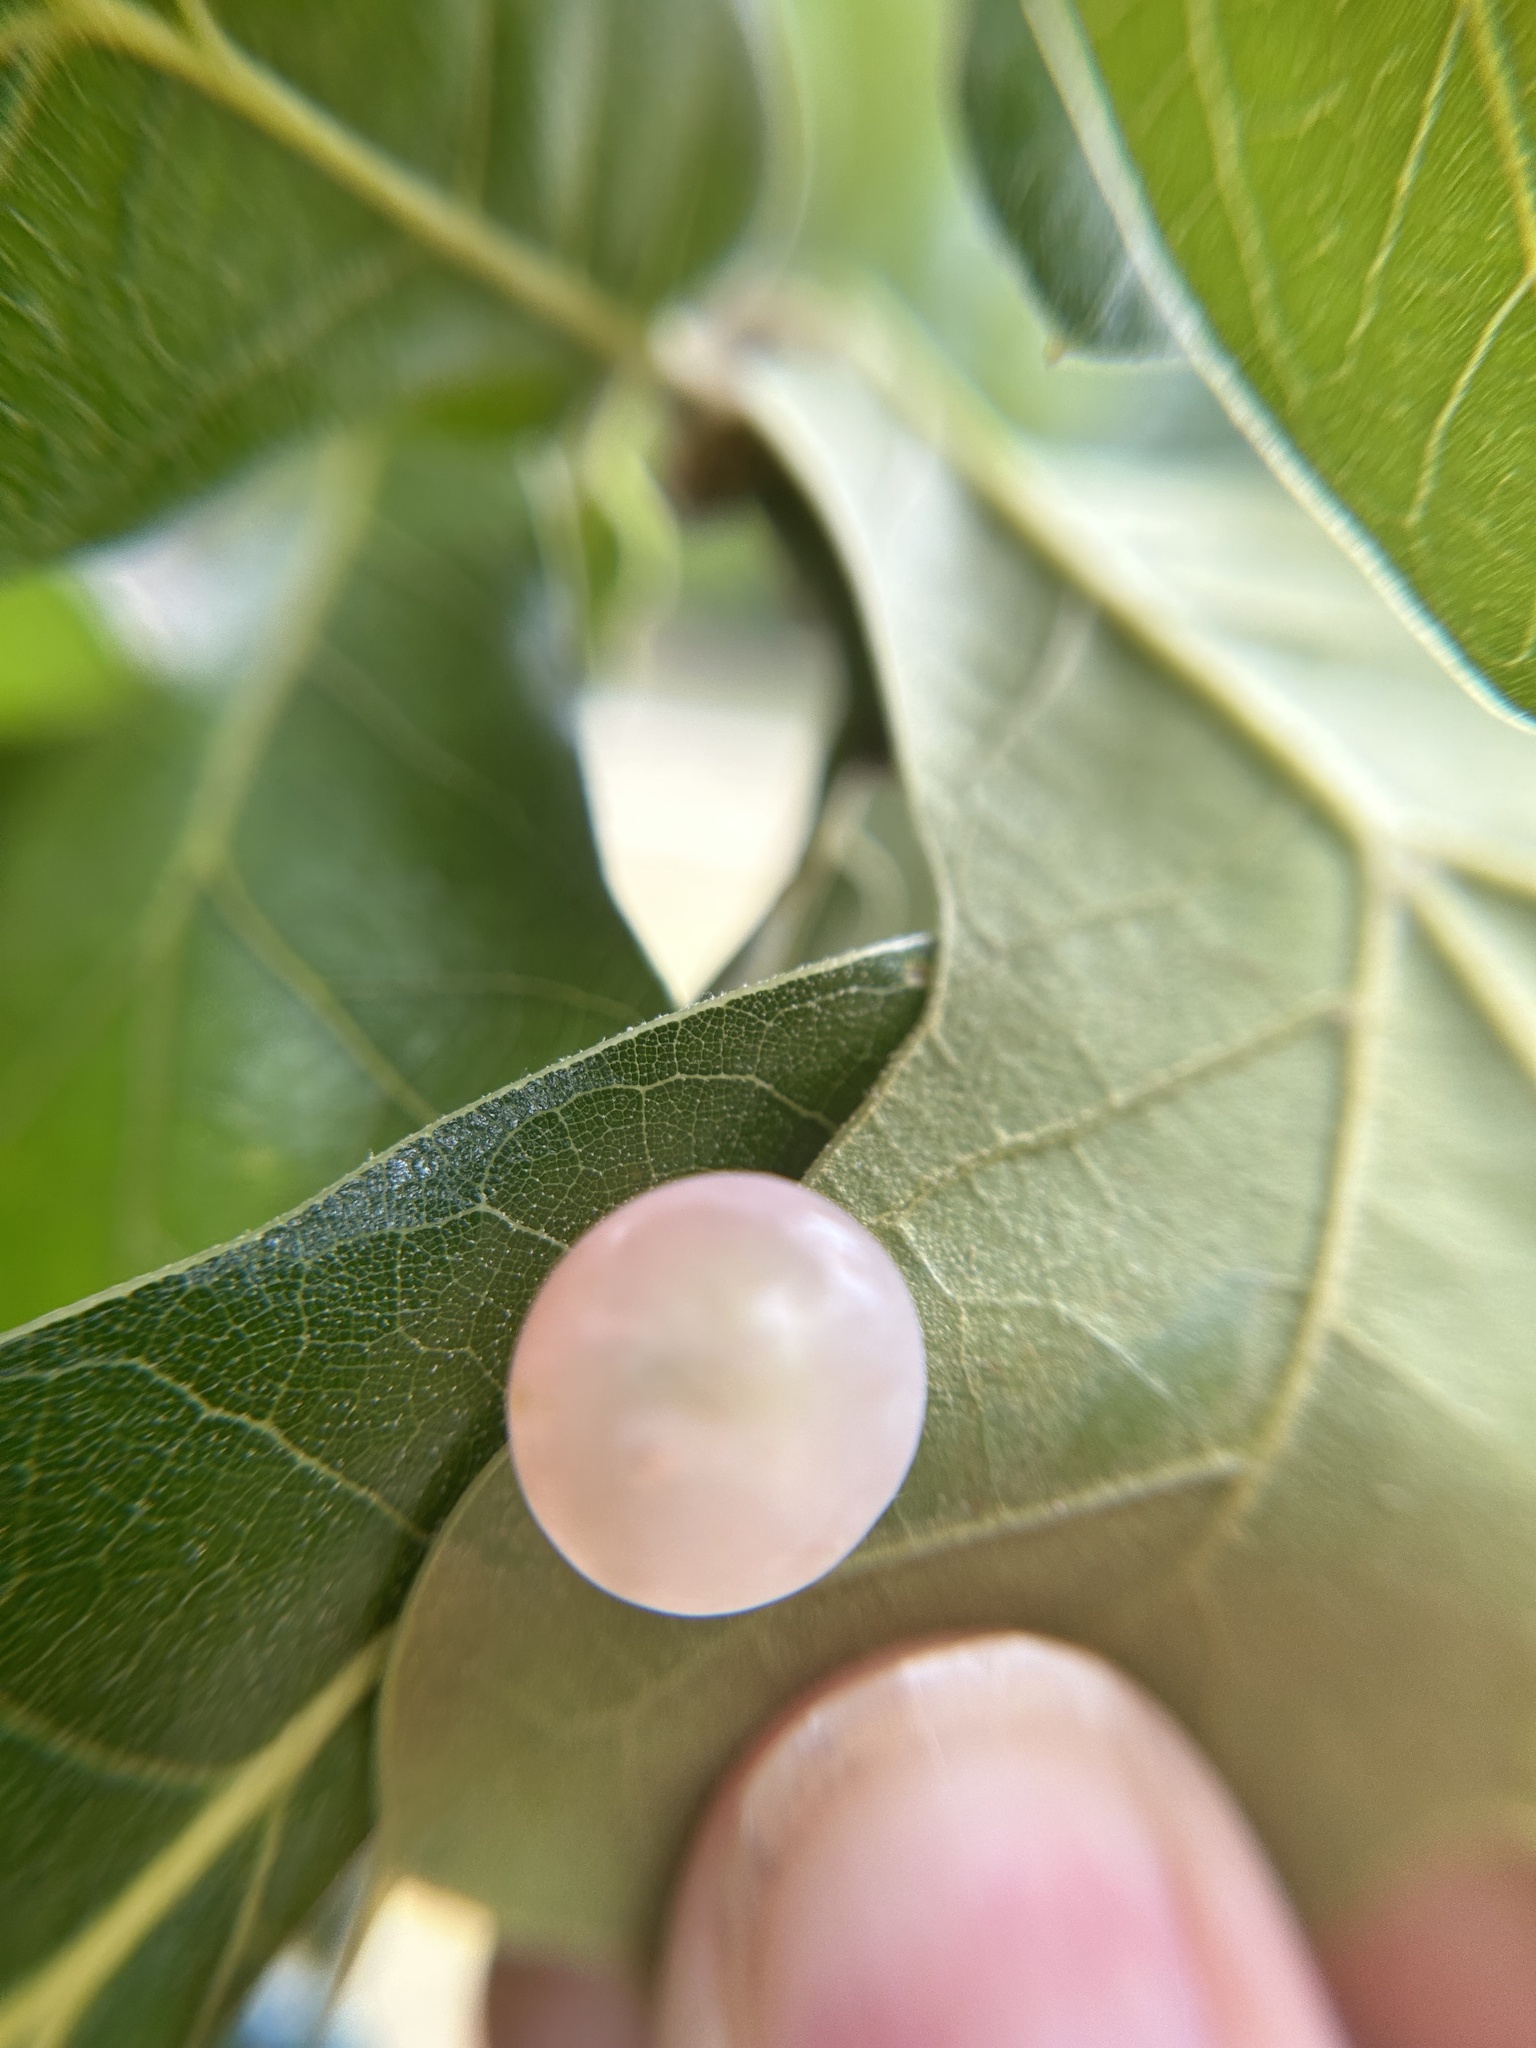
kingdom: Animalia
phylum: Arthropoda
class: Insecta
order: Hymenoptera
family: Cynipidae
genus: Amphibolips
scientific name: Amphibolips
